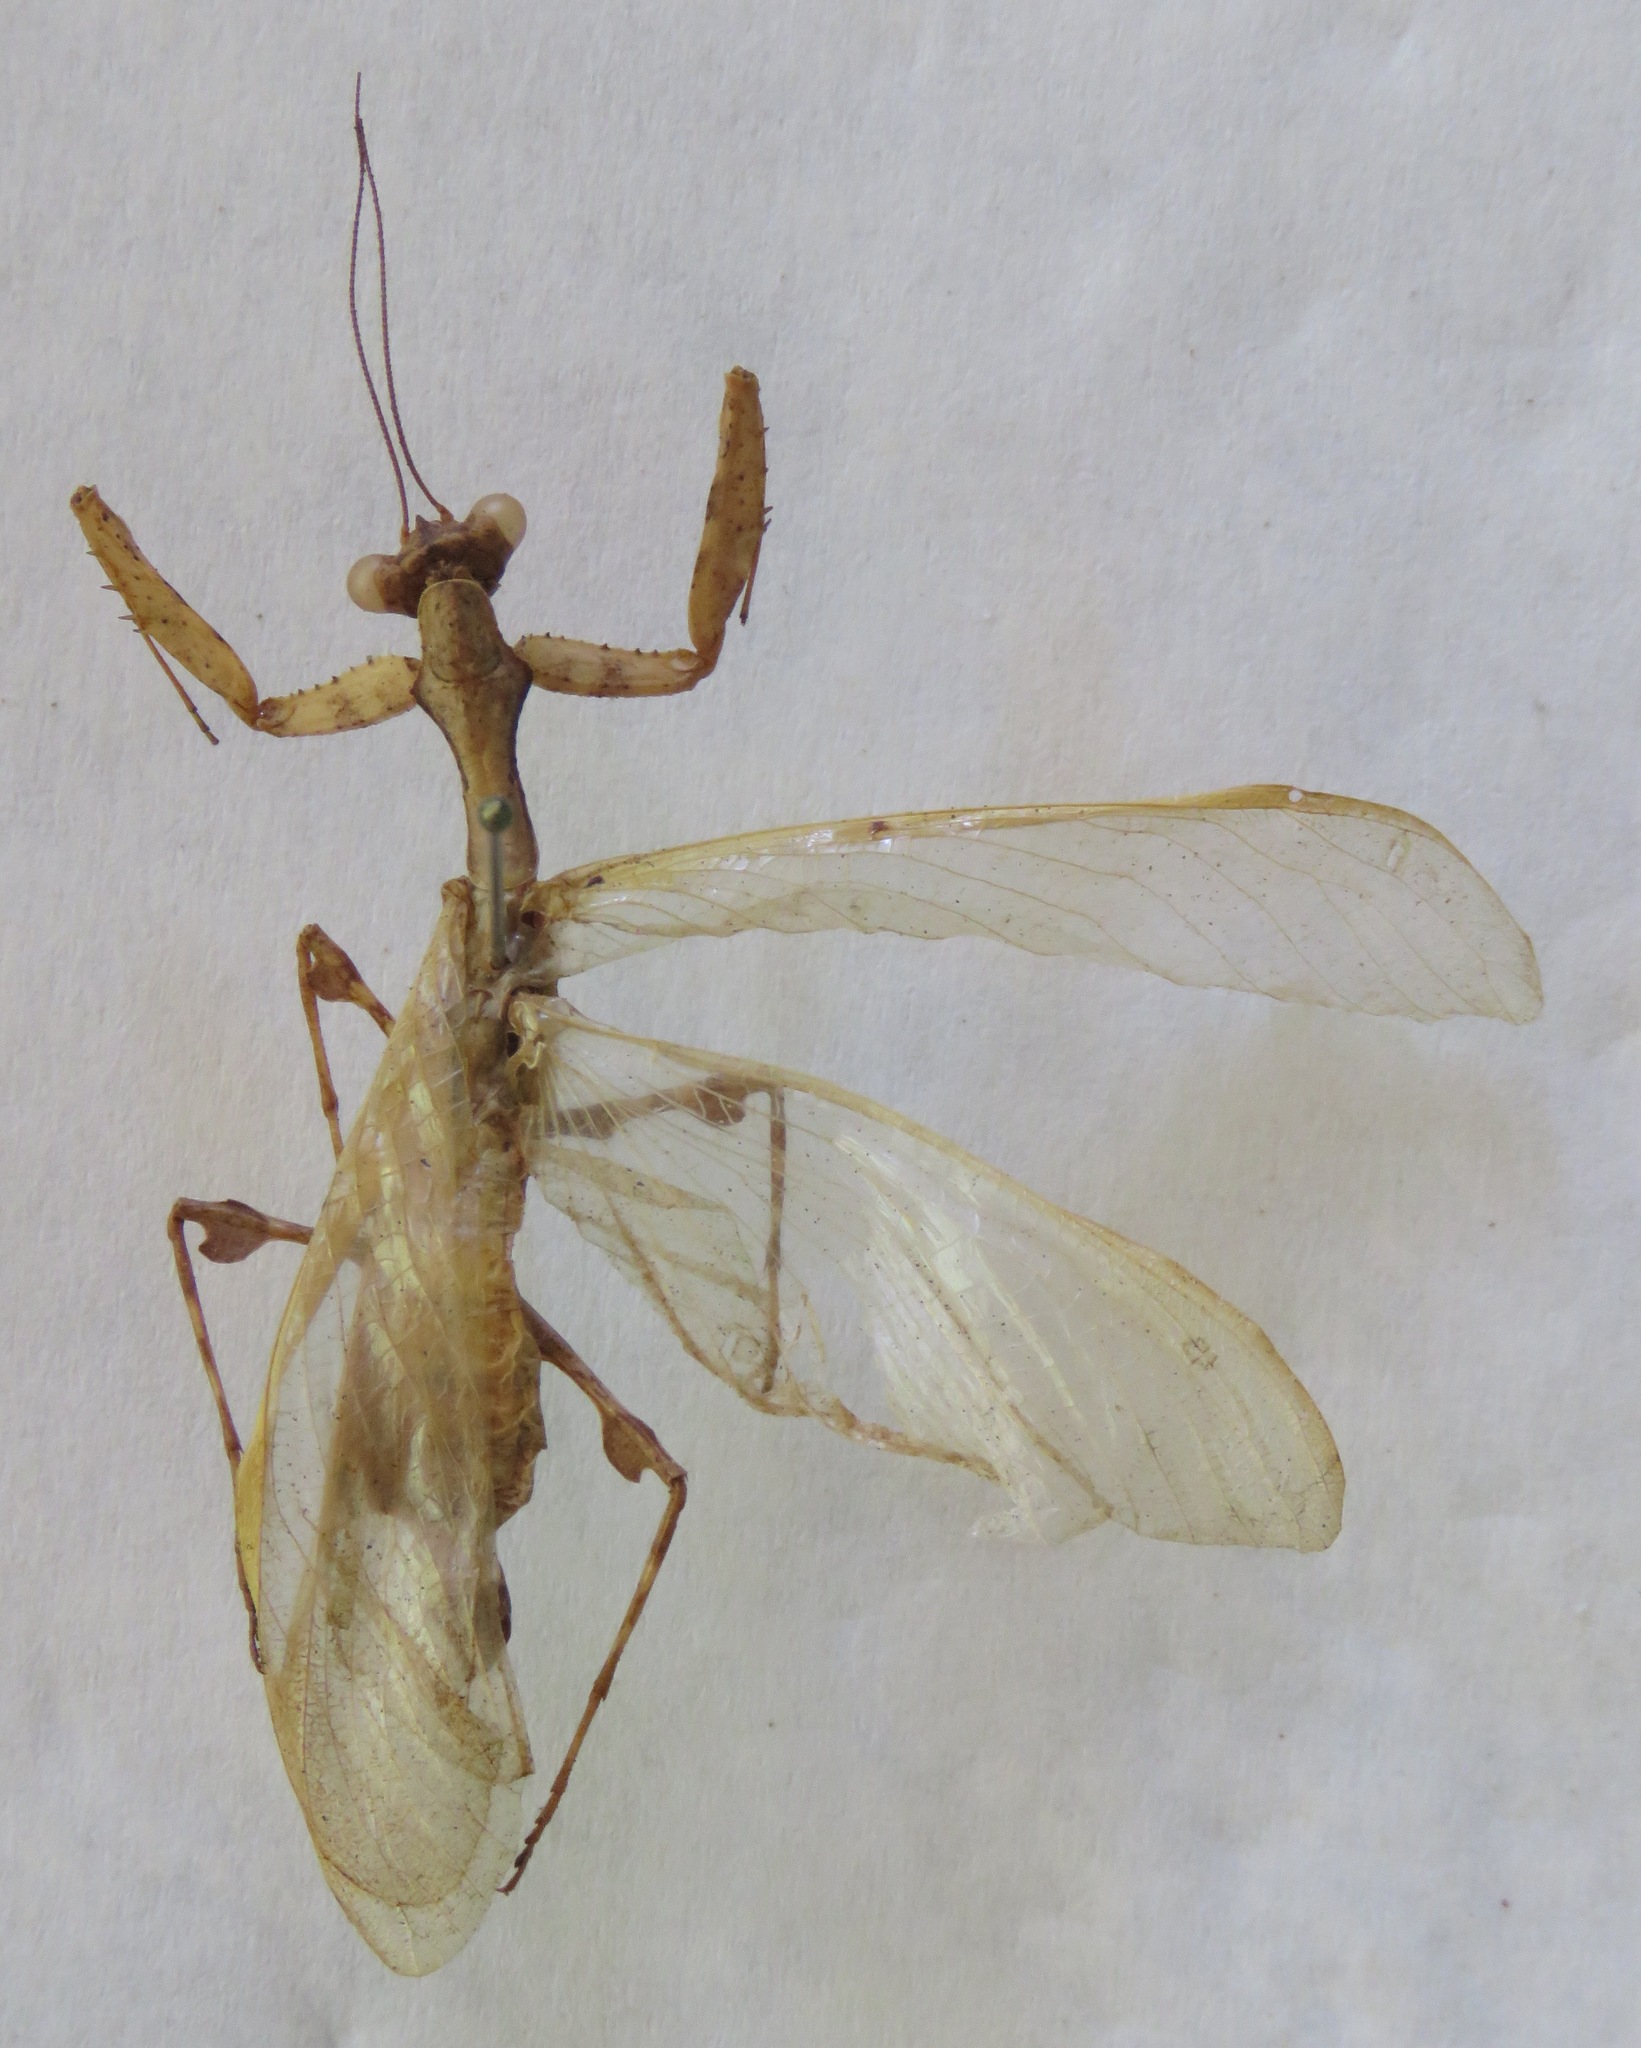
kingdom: Animalia
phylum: Arthropoda
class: Insecta
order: Mantodea
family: Mantidae
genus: Antemna
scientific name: Antemna rapax
